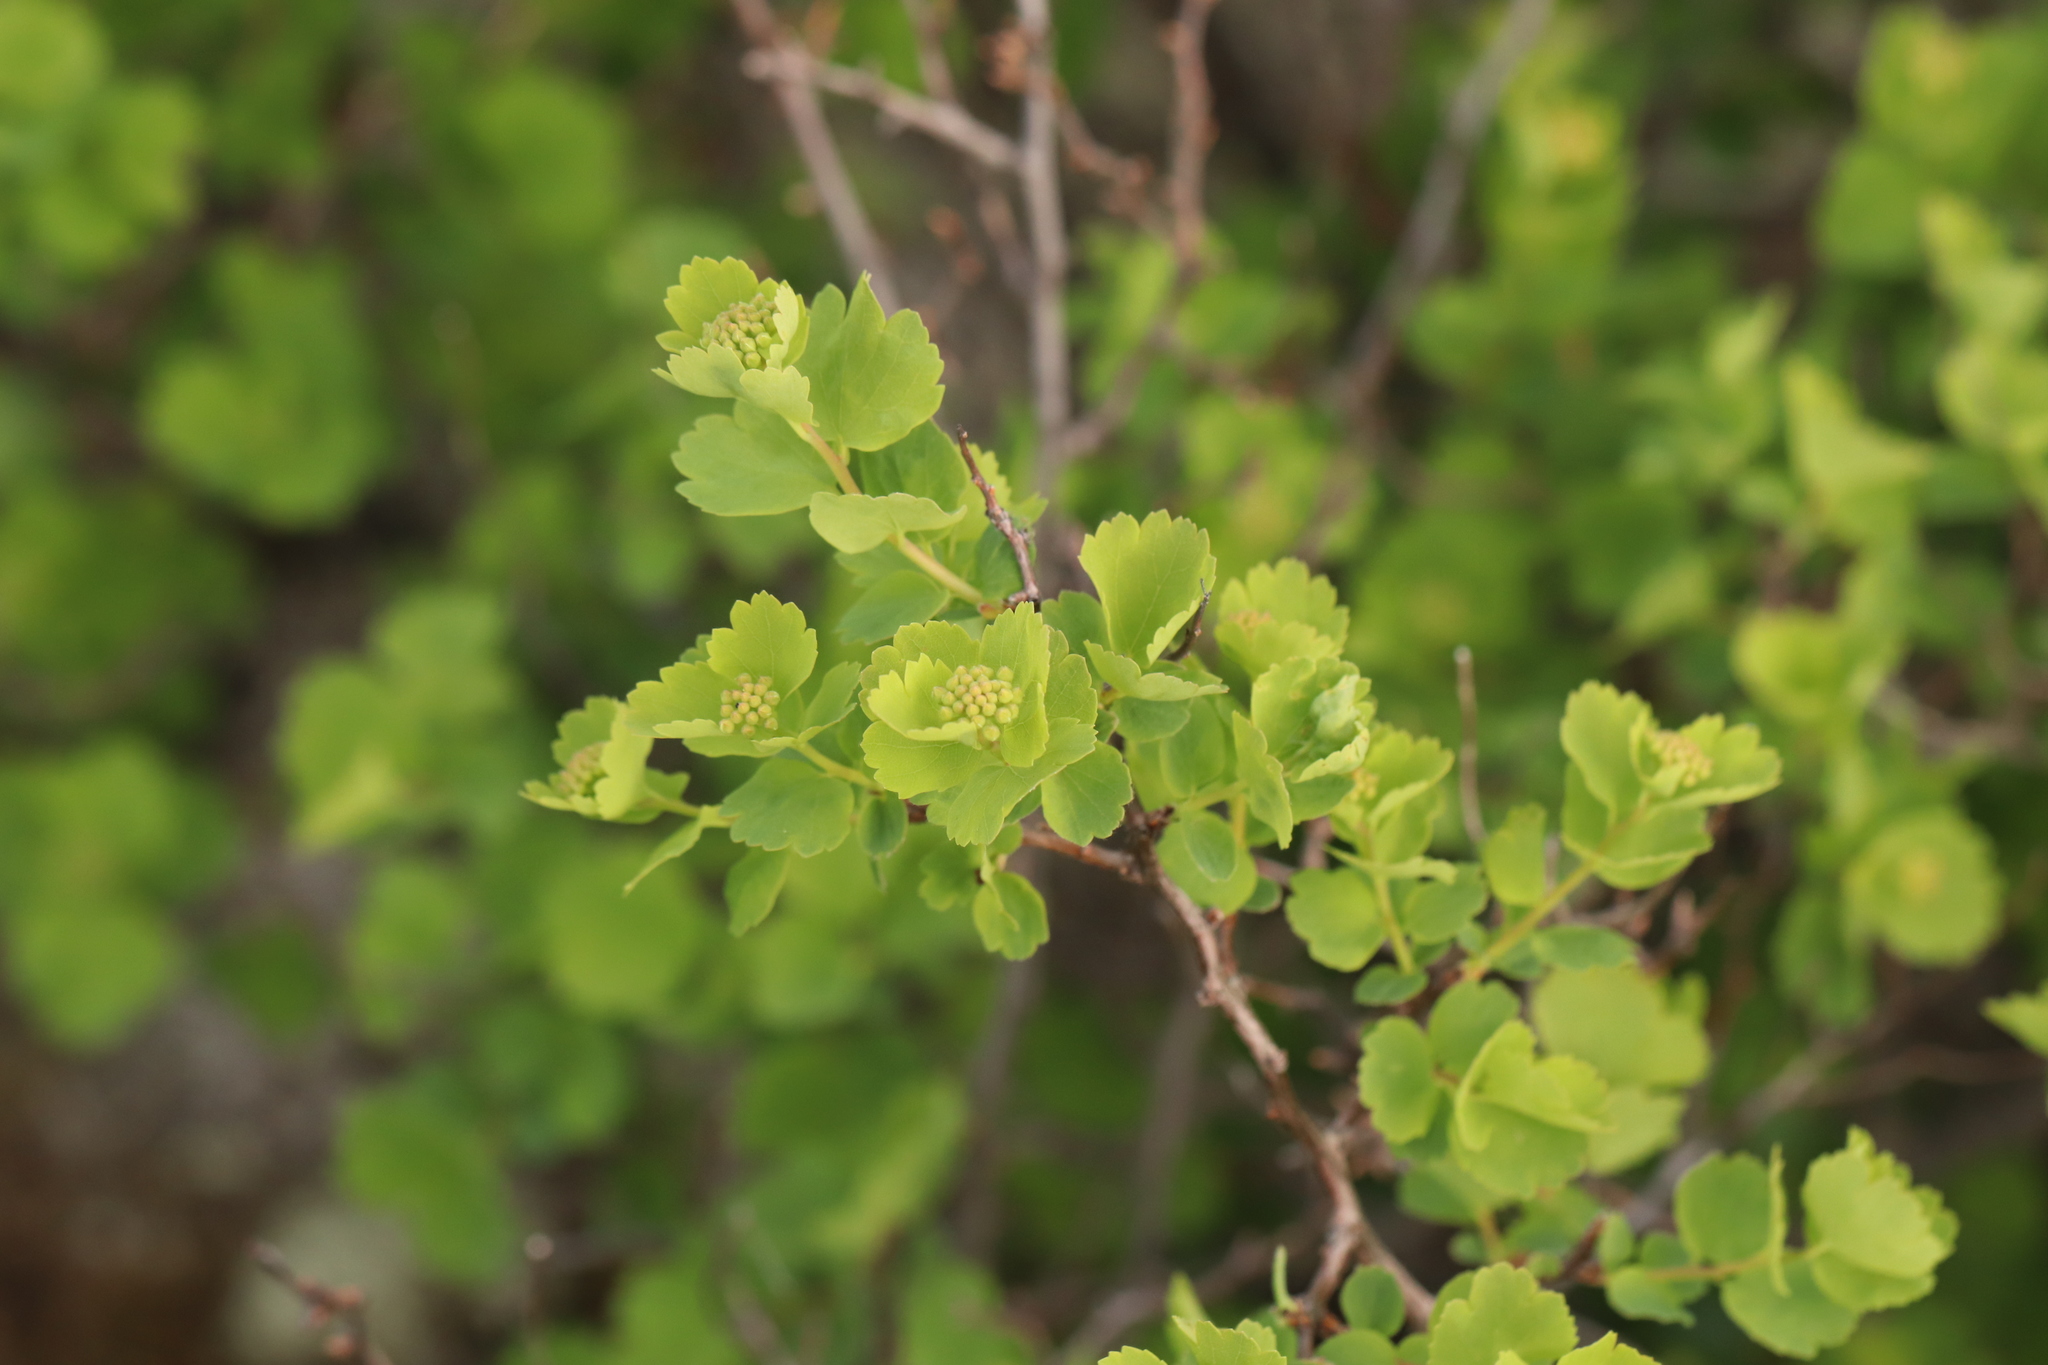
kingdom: Plantae
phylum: Tracheophyta
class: Magnoliopsida
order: Rosales
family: Rosaceae
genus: Spiraea
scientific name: Spiraea trilobata
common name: Asian meadowsweet
